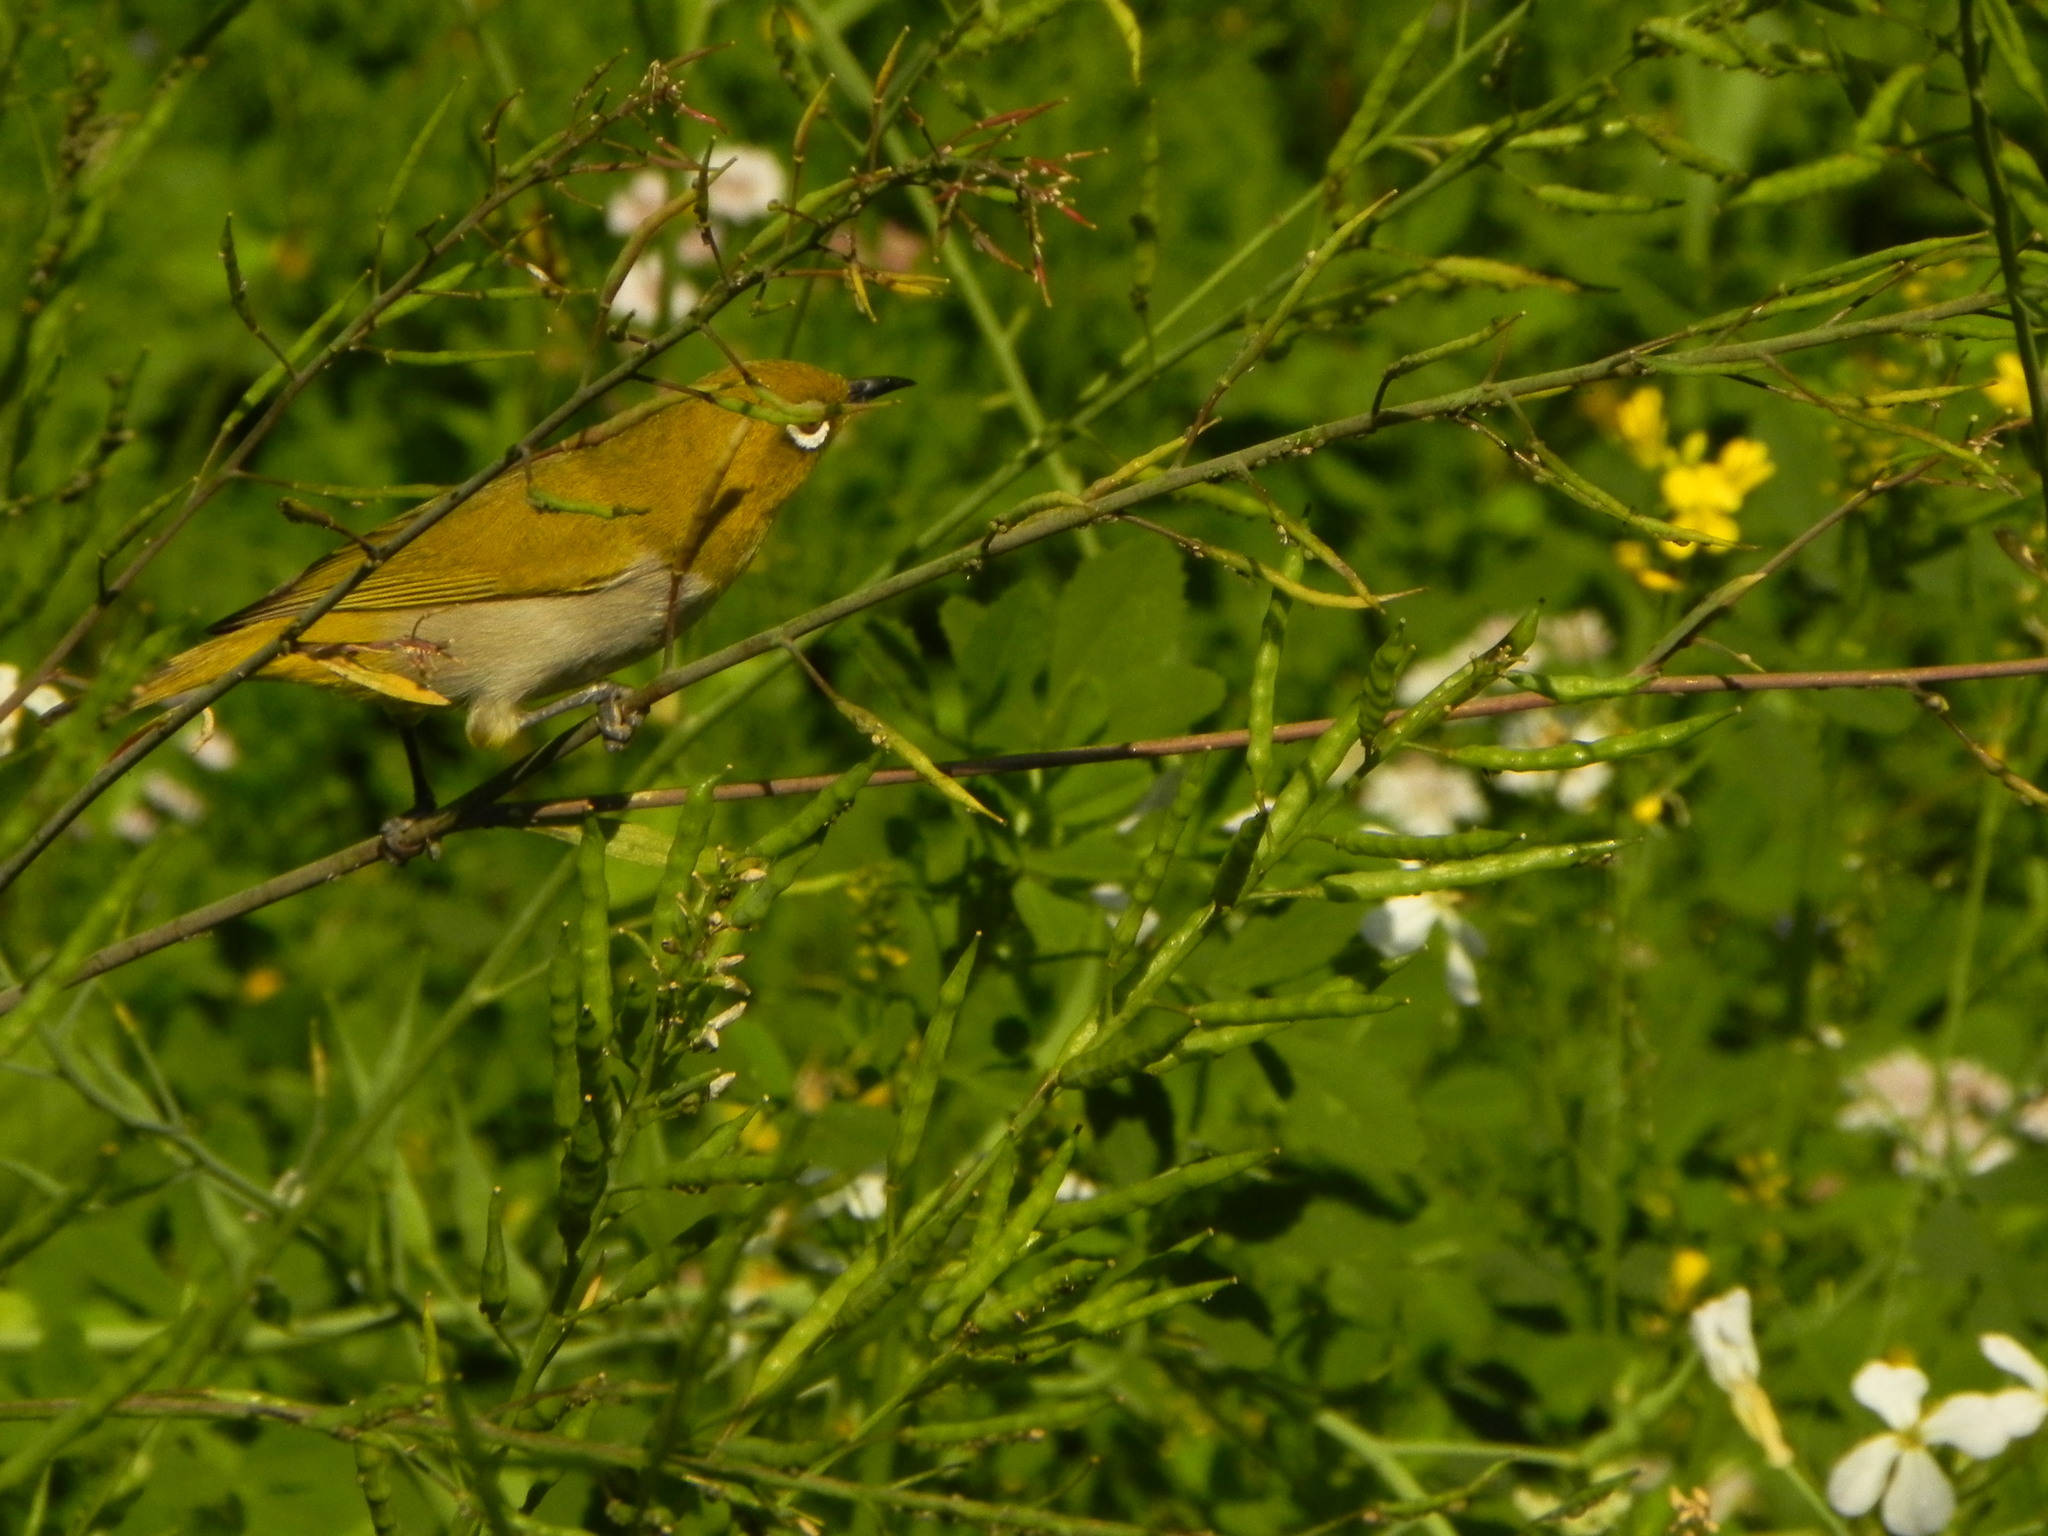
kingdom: Animalia
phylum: Chordata
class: Aves
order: Passeriformes
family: Zosteropidae
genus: Zosterops
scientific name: Zosterops palpebrosus
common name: Oriental white-eye
